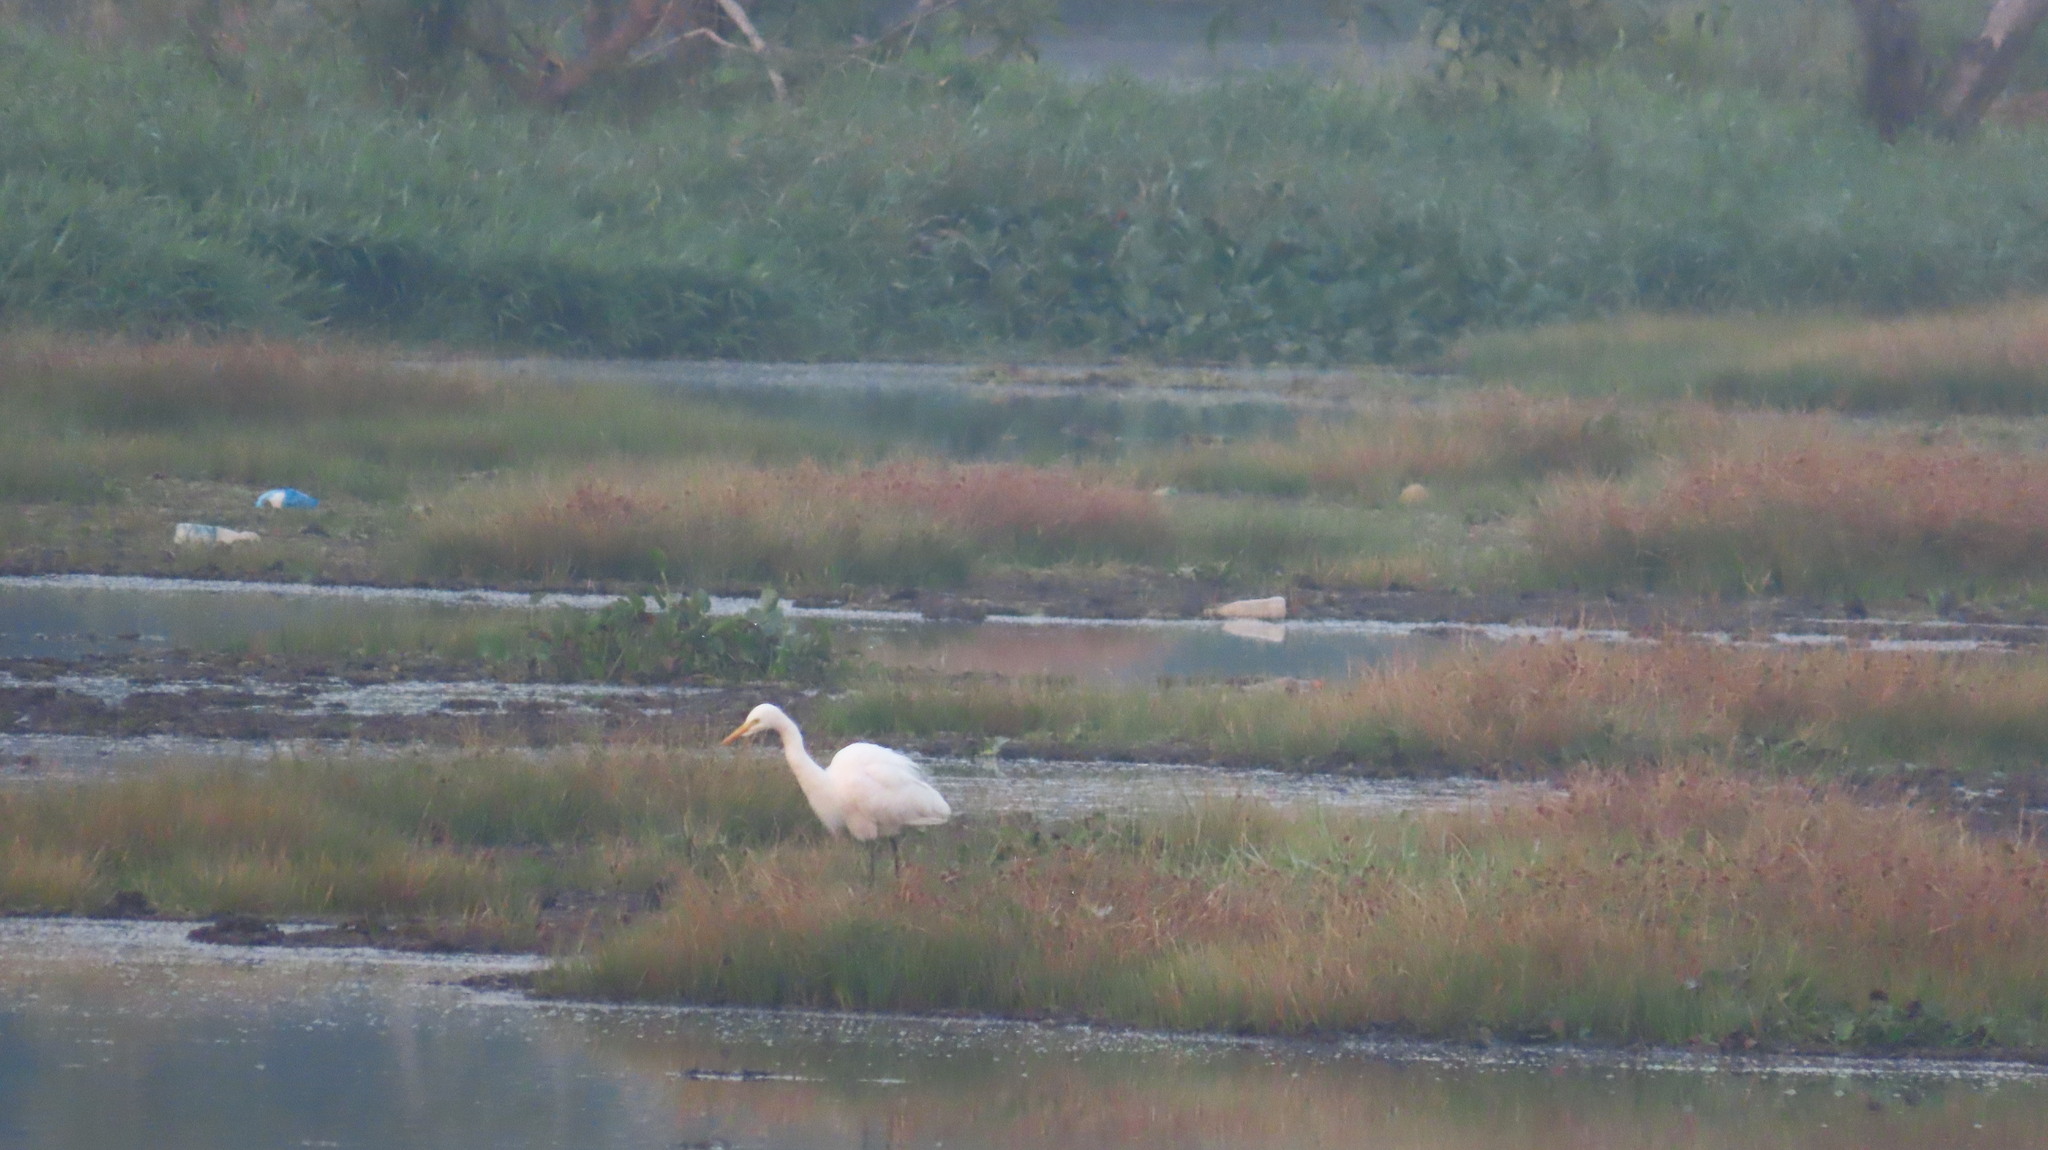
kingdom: Animalia
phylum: Chordata
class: Aves
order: Pelecaniformes
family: Ardeidae
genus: Egretta
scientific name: Egretta intermedia
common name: Intermediate egret
